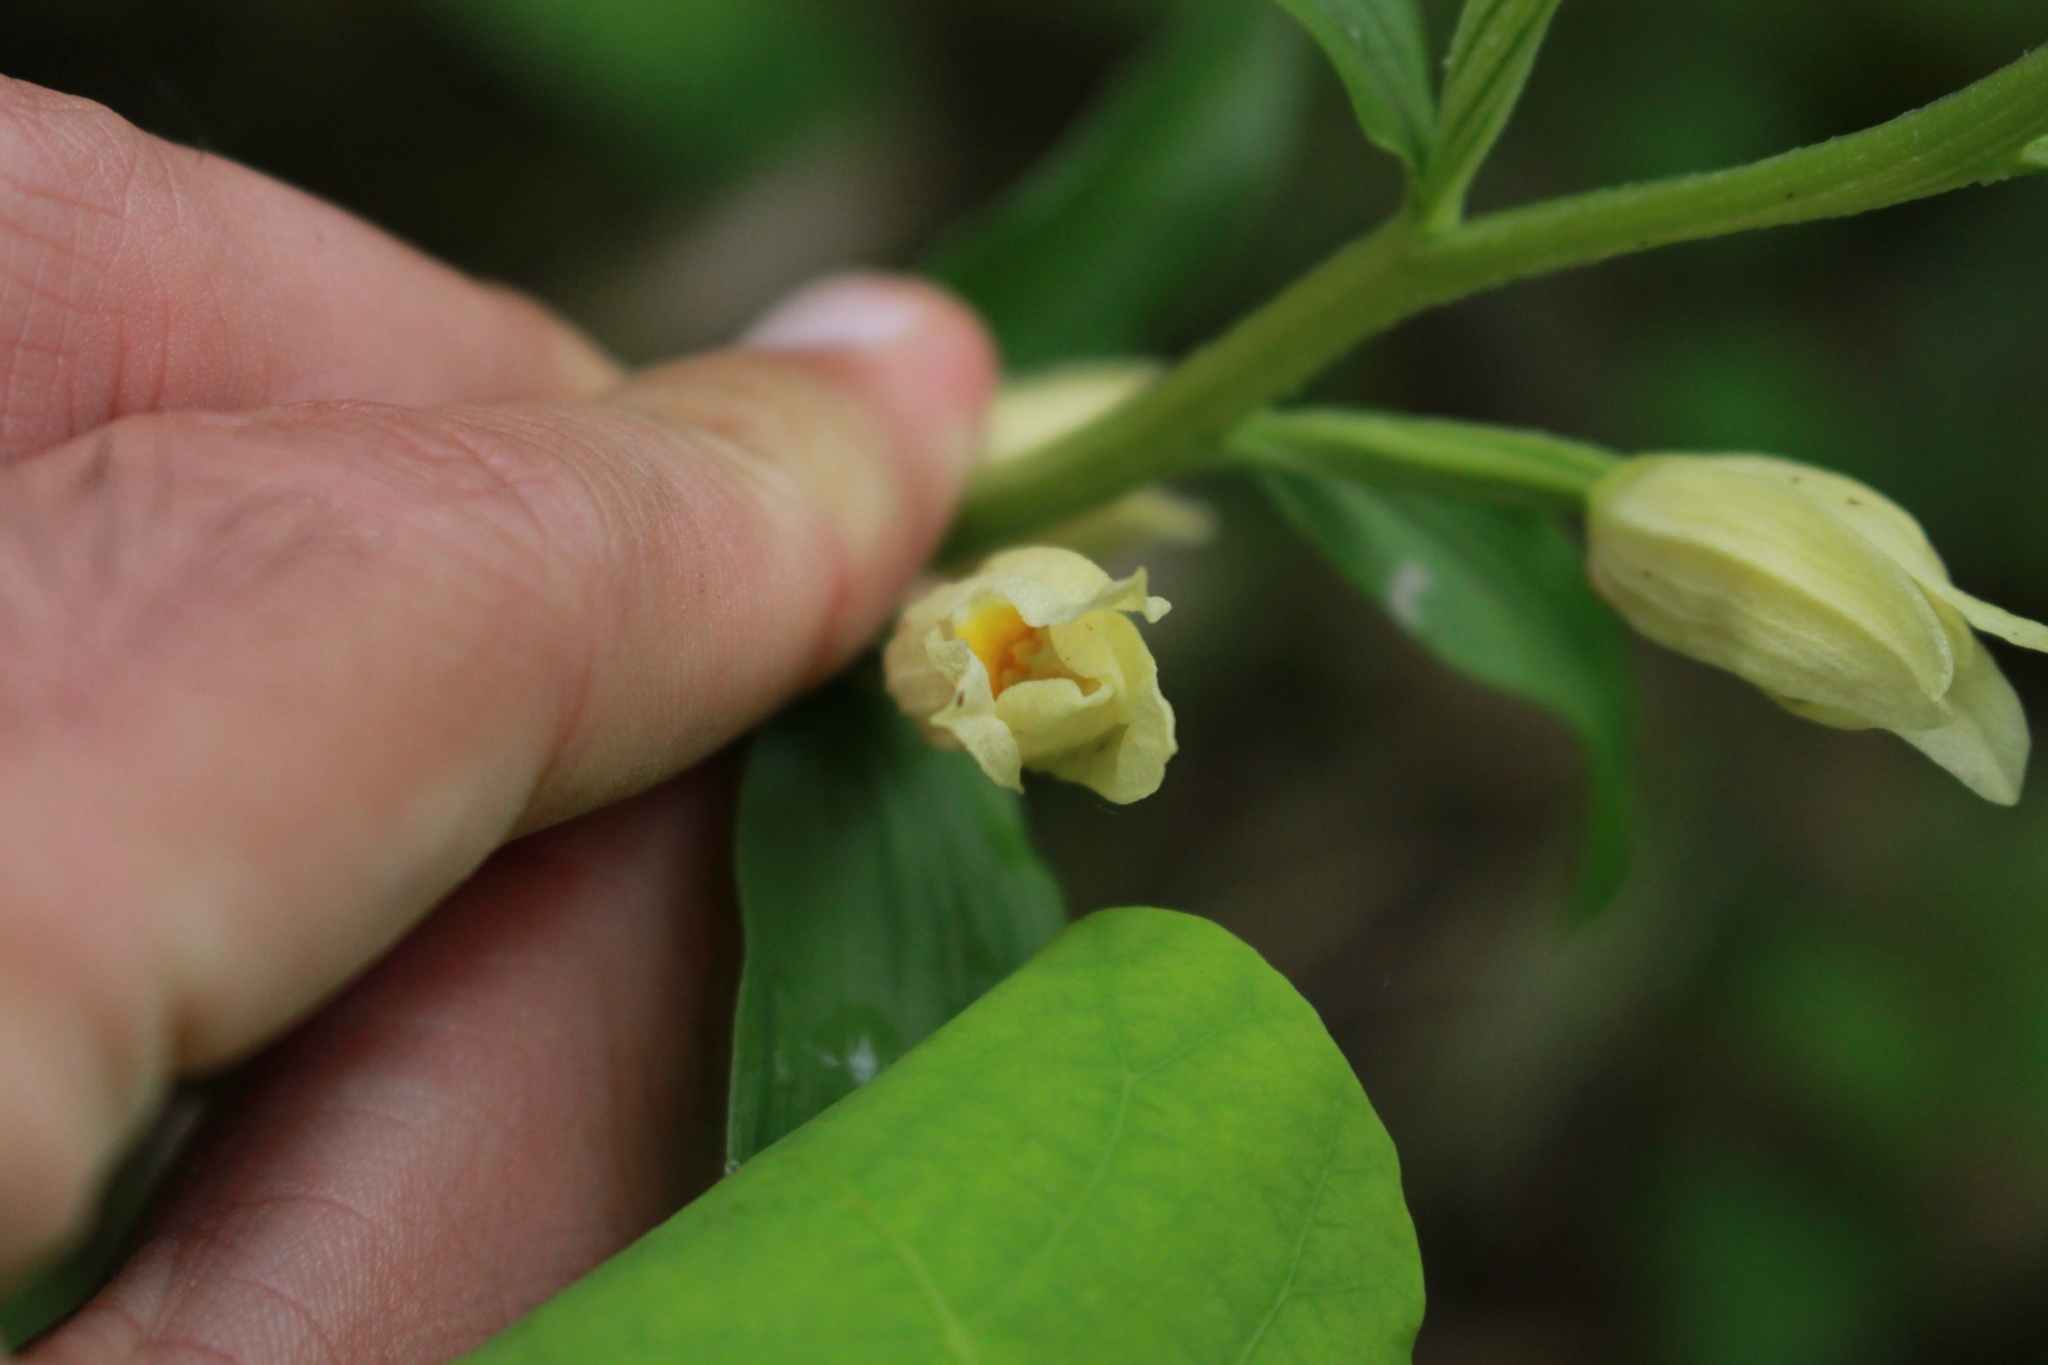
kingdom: Plantae
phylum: Tracheophyta
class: Liliopsida
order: Asparagales
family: Orchidaceae
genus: Cephalanthera
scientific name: Cephalanthera damasonium
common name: White helleborine
